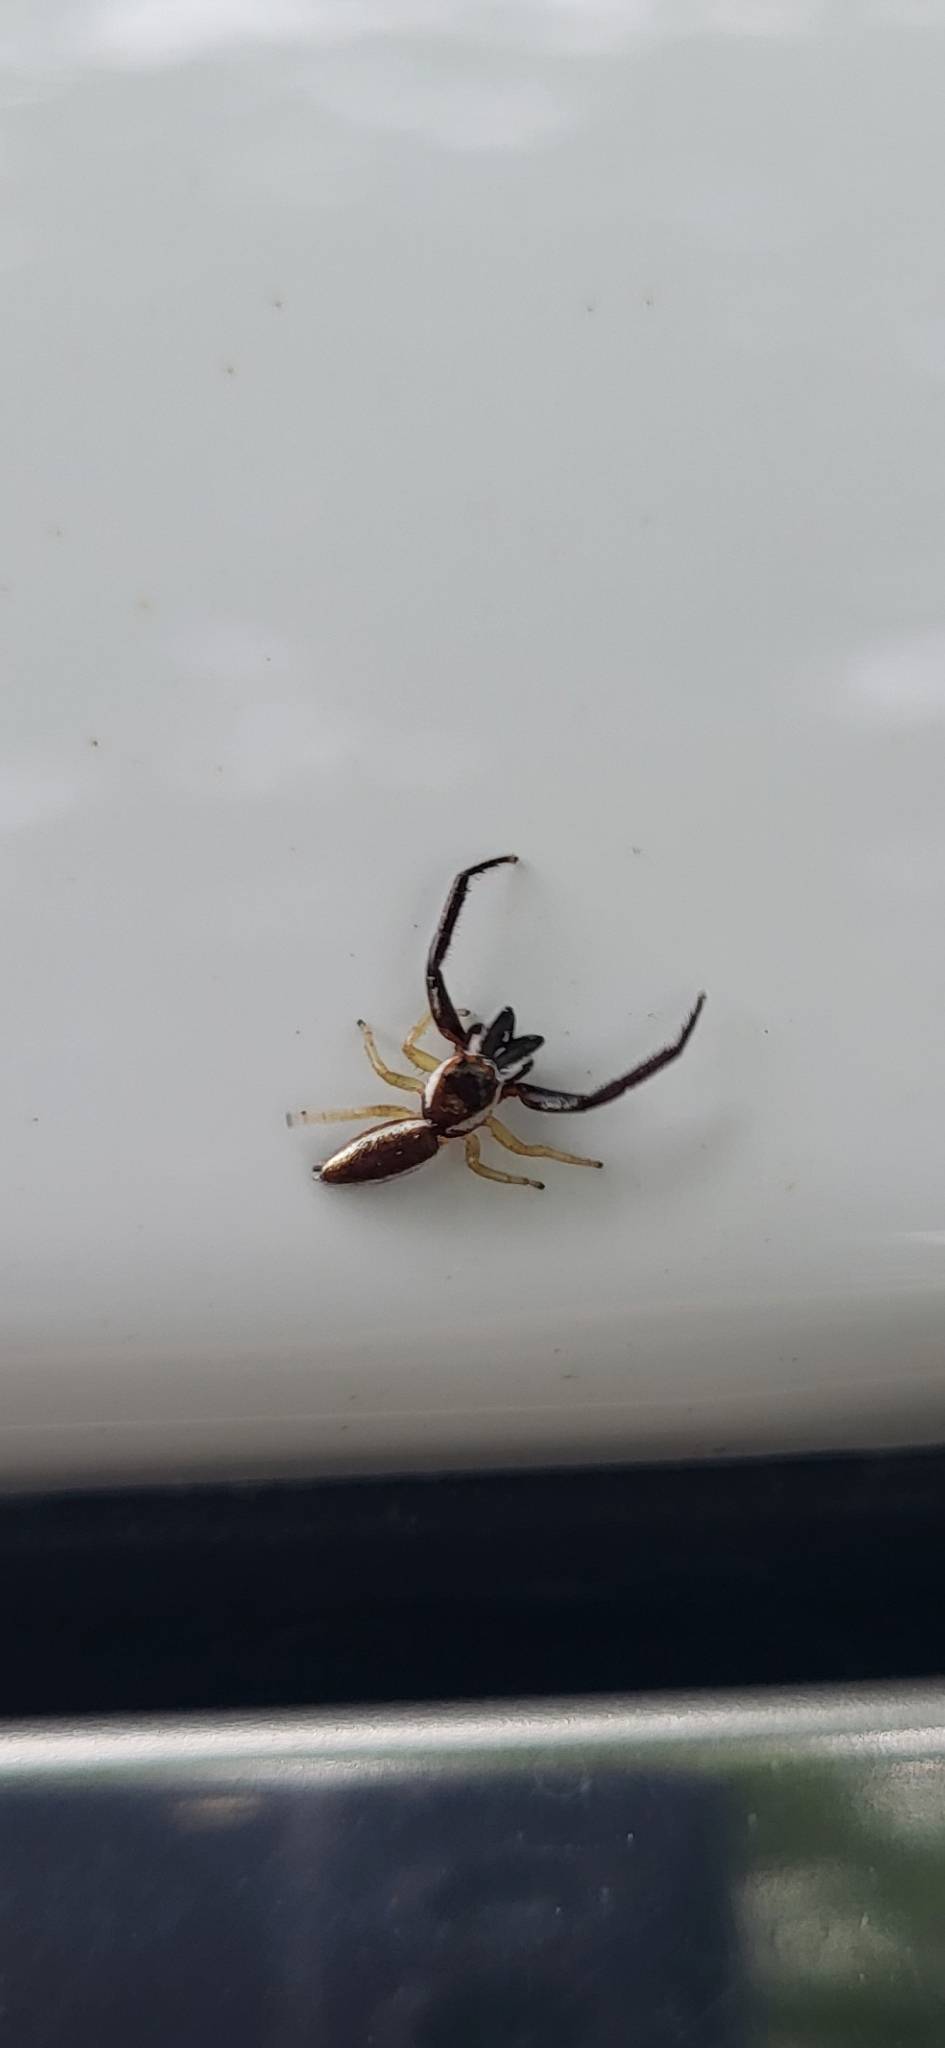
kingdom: Animalia
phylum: Arthropoda
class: Arachnida
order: Araneae
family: Salticidae
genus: Hentzia
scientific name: Hentzia palmarum
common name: Common hentz jumping spider
